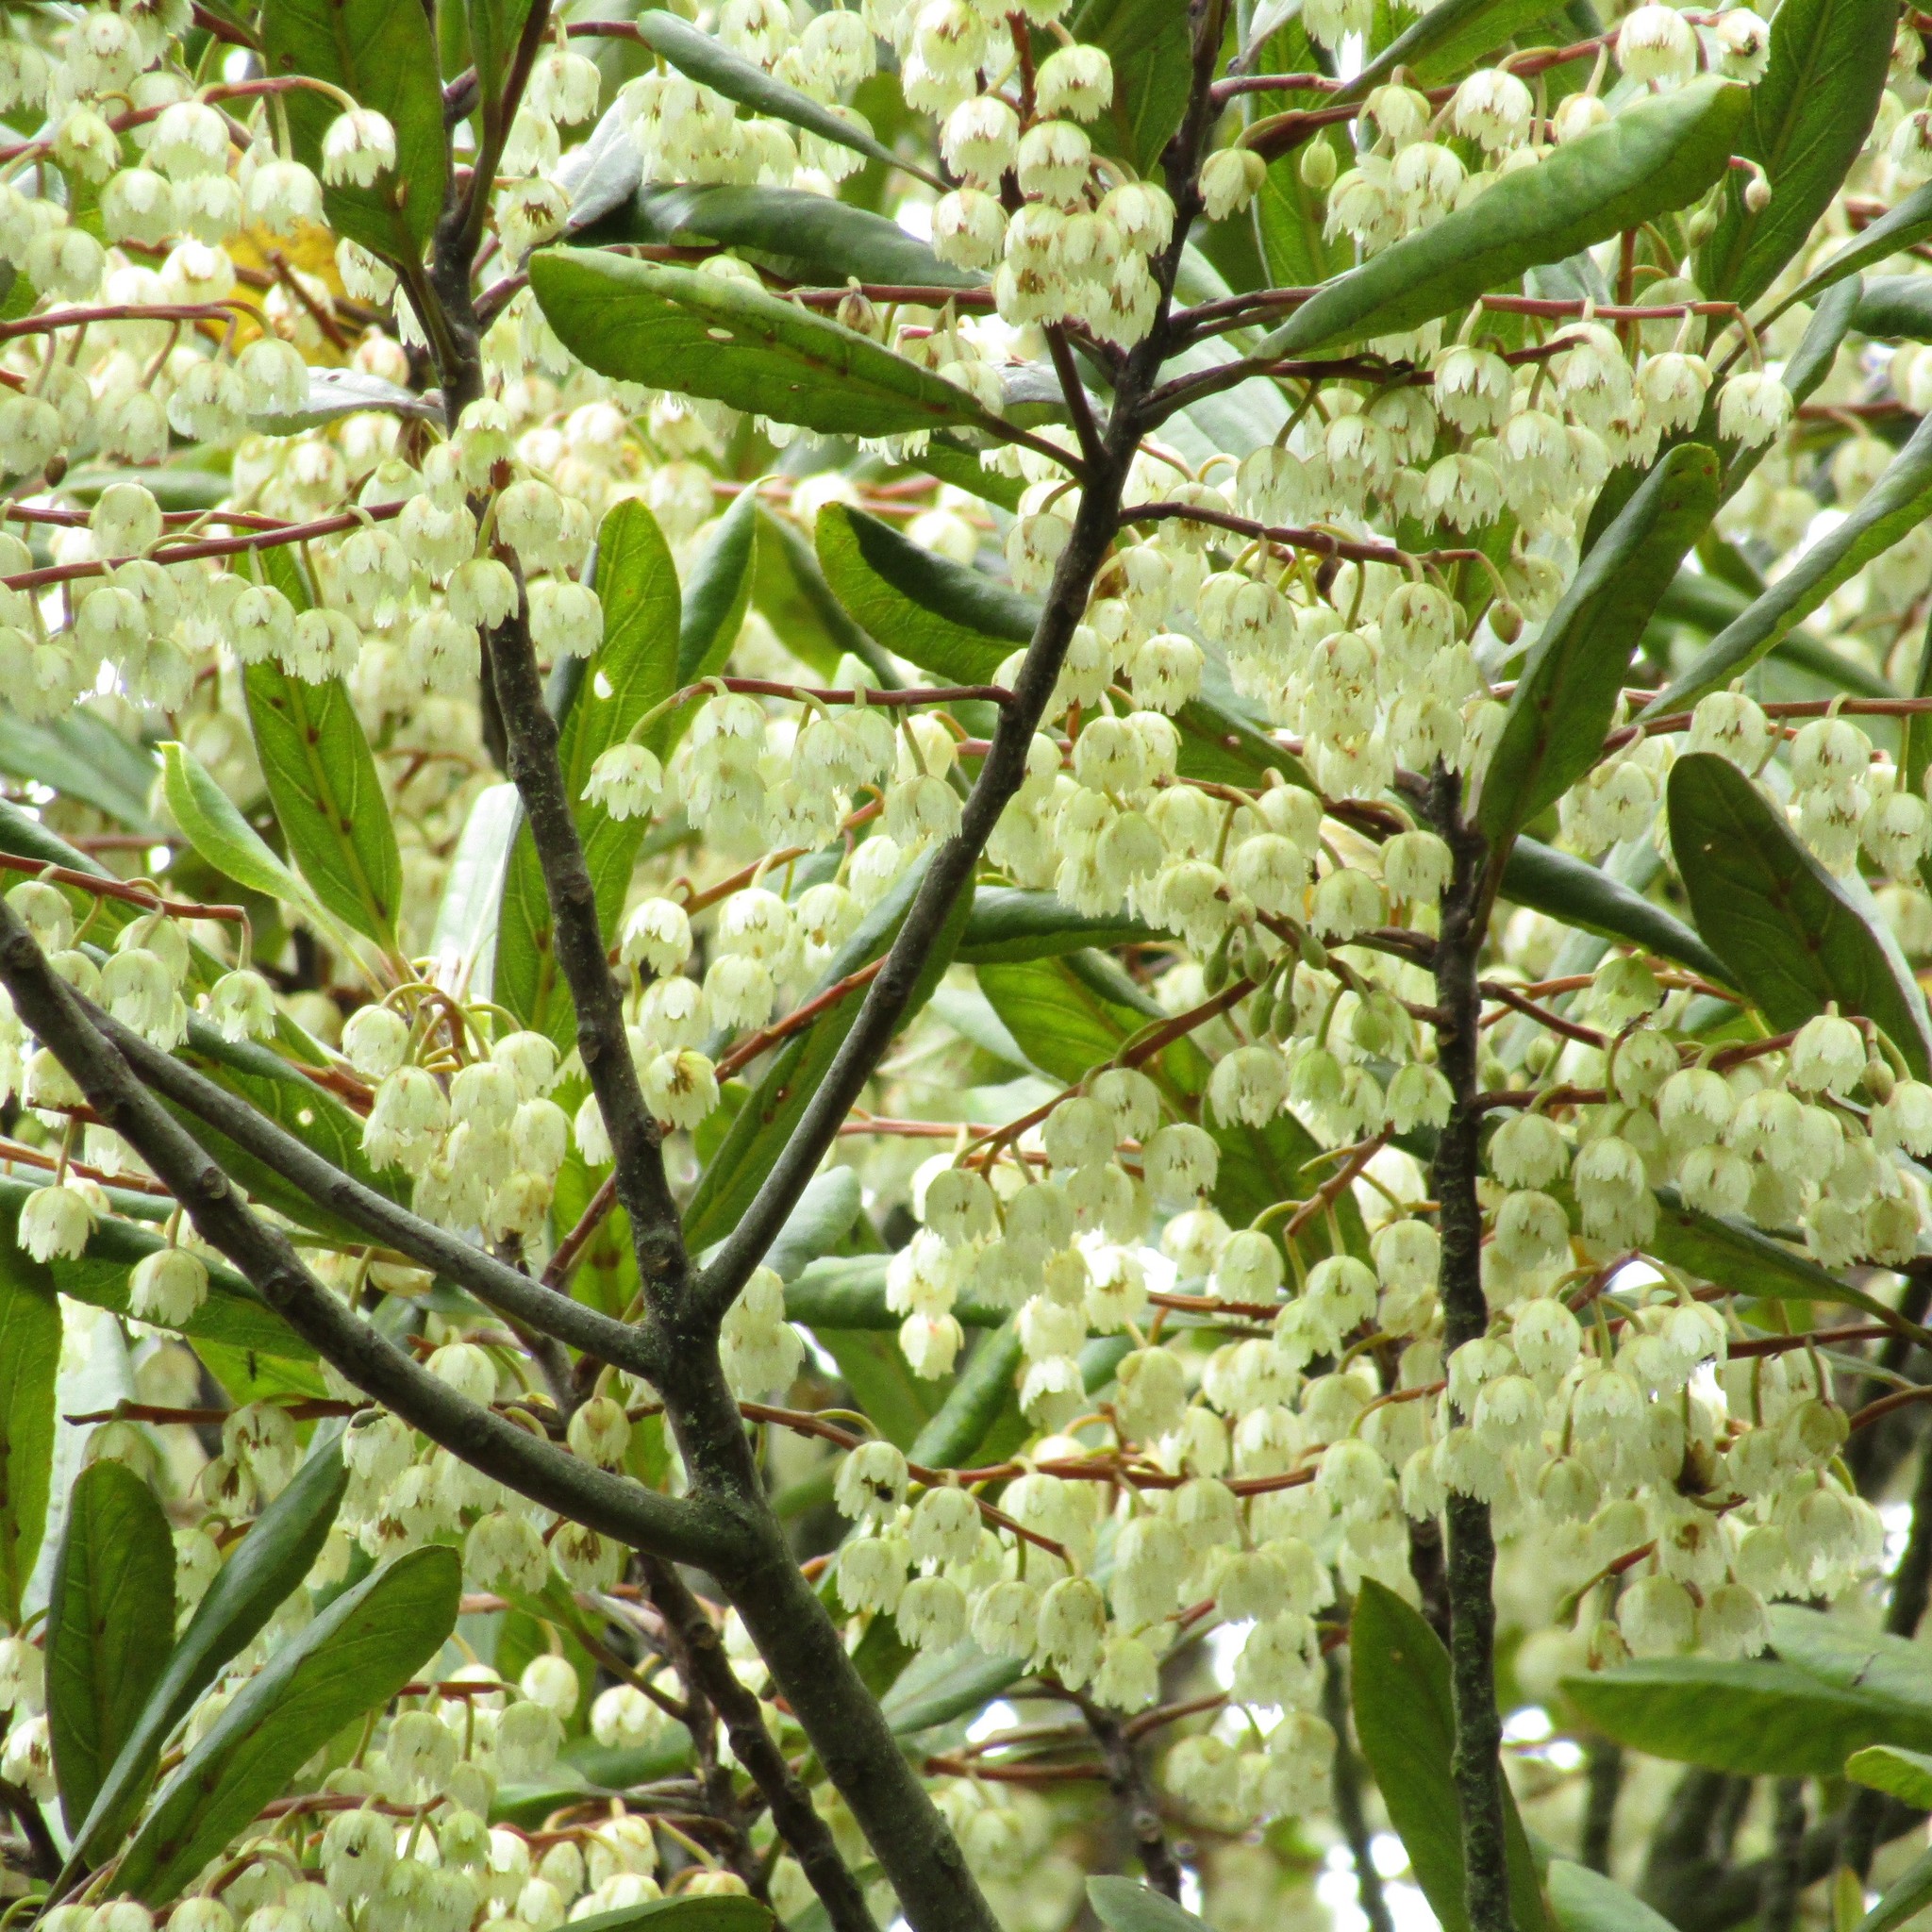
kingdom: Plantae
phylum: Tracheophyta
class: Magnoliopsida
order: Oxalidales
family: Elaeocarpaceae
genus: Elaeocarpus
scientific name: Elaeocarpus dentatus
